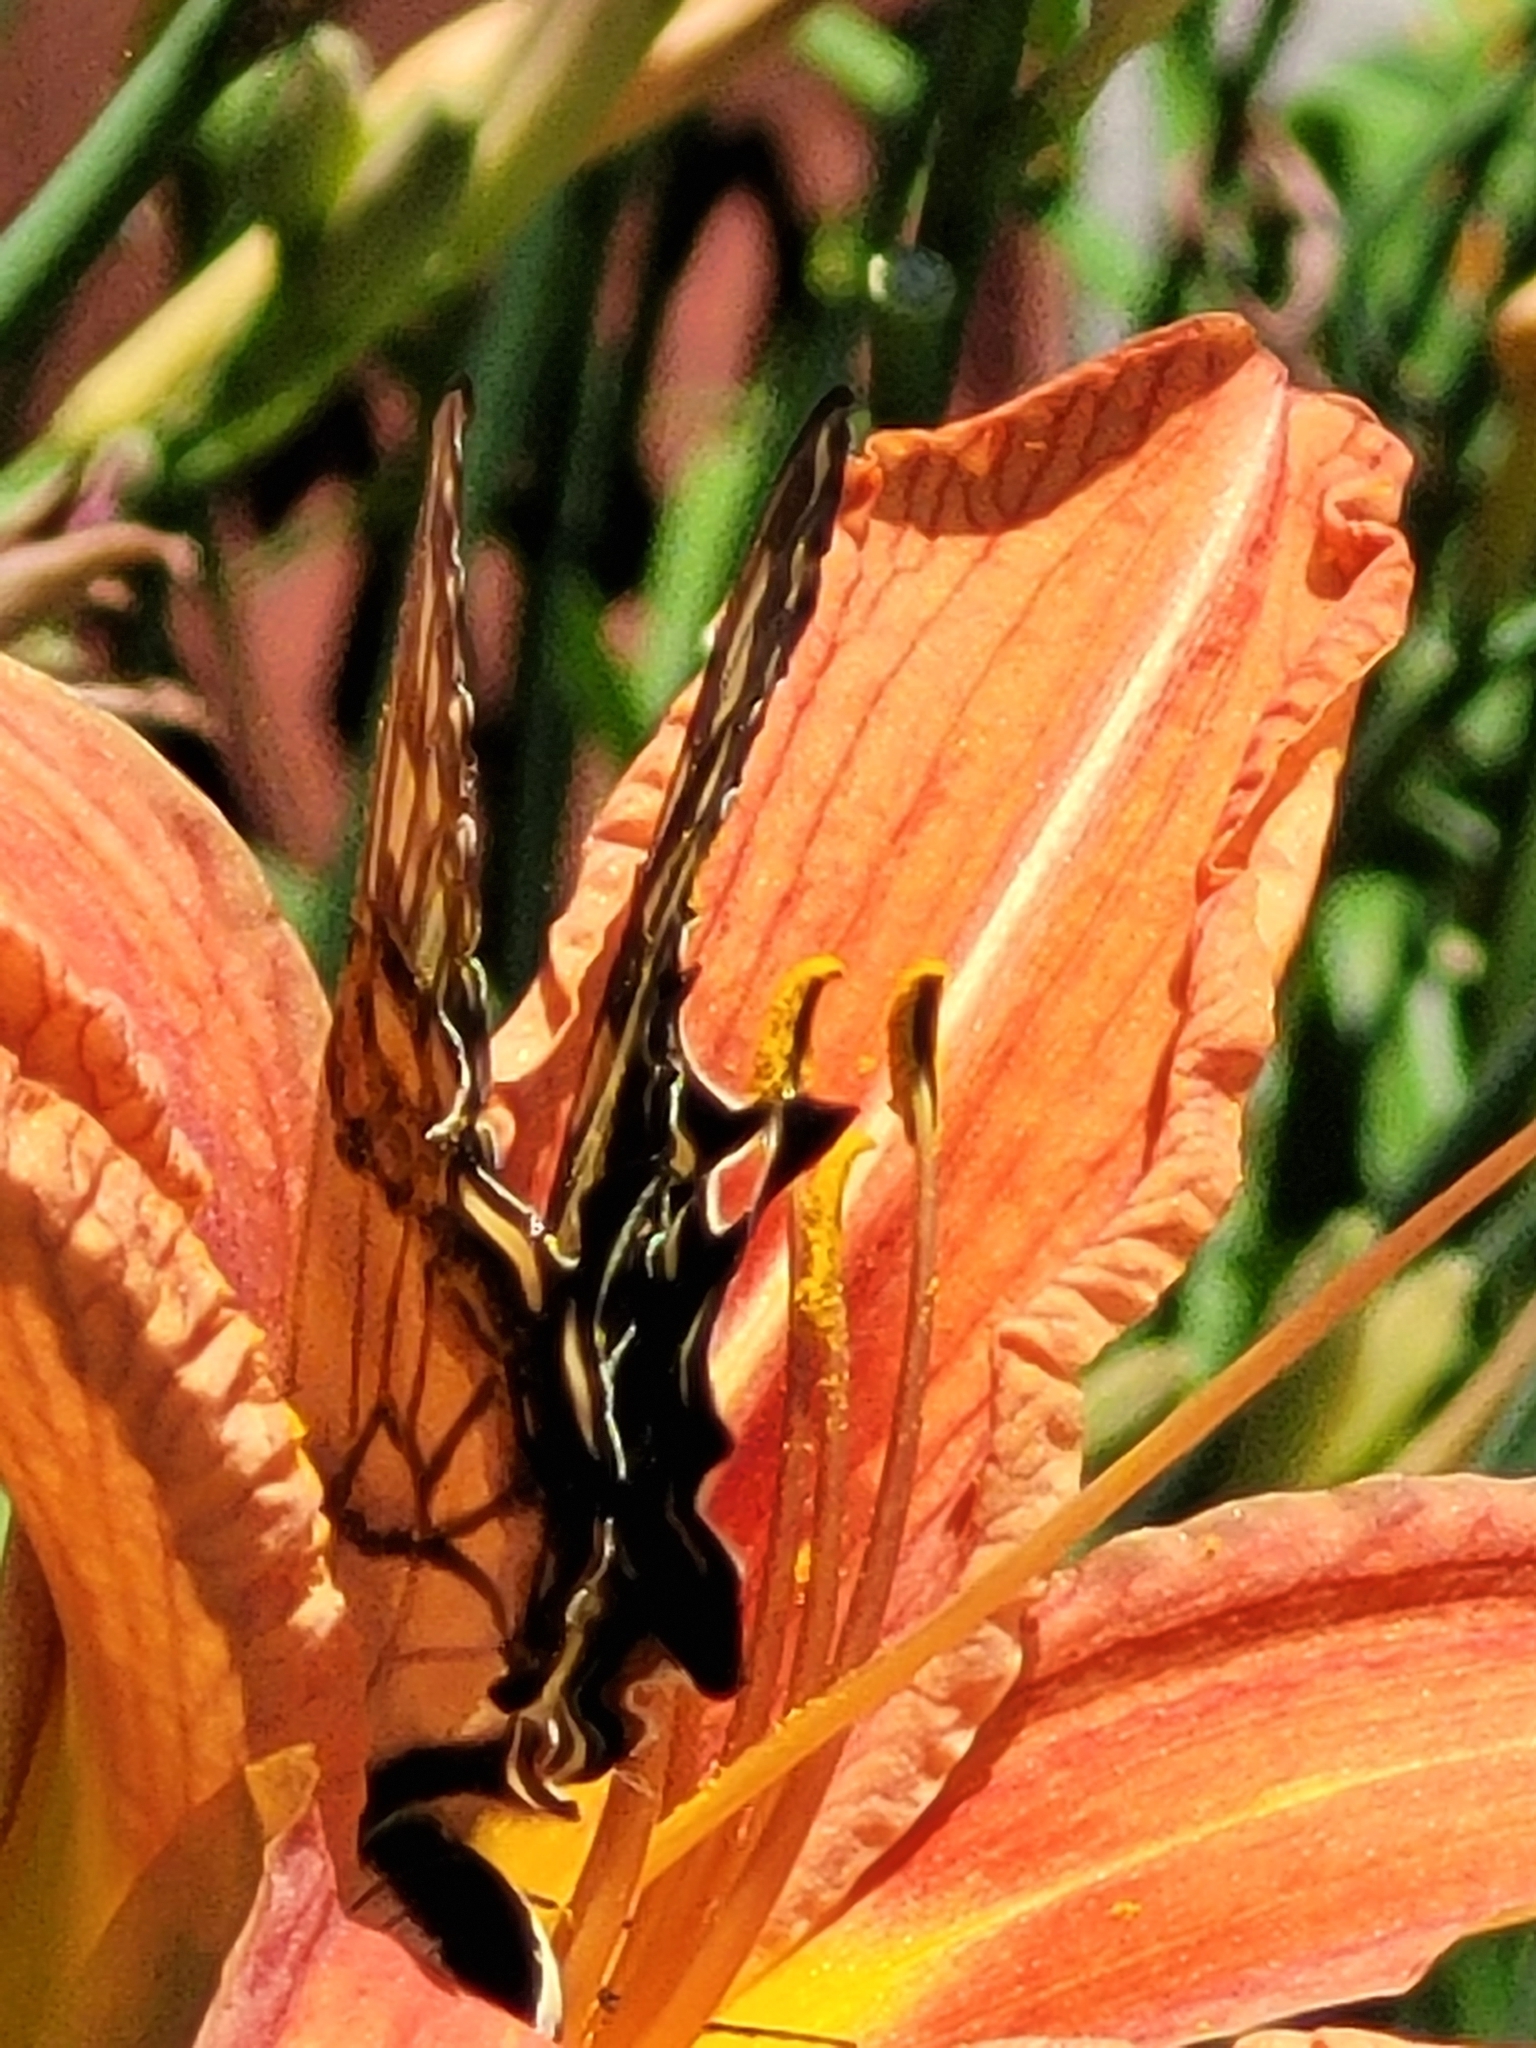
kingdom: Animalia
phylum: Arthropoda
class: Insecta
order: Lepidoptera
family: Papilionidae
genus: Papilio
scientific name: Papilio glaucus
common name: Tiger swallowtail
